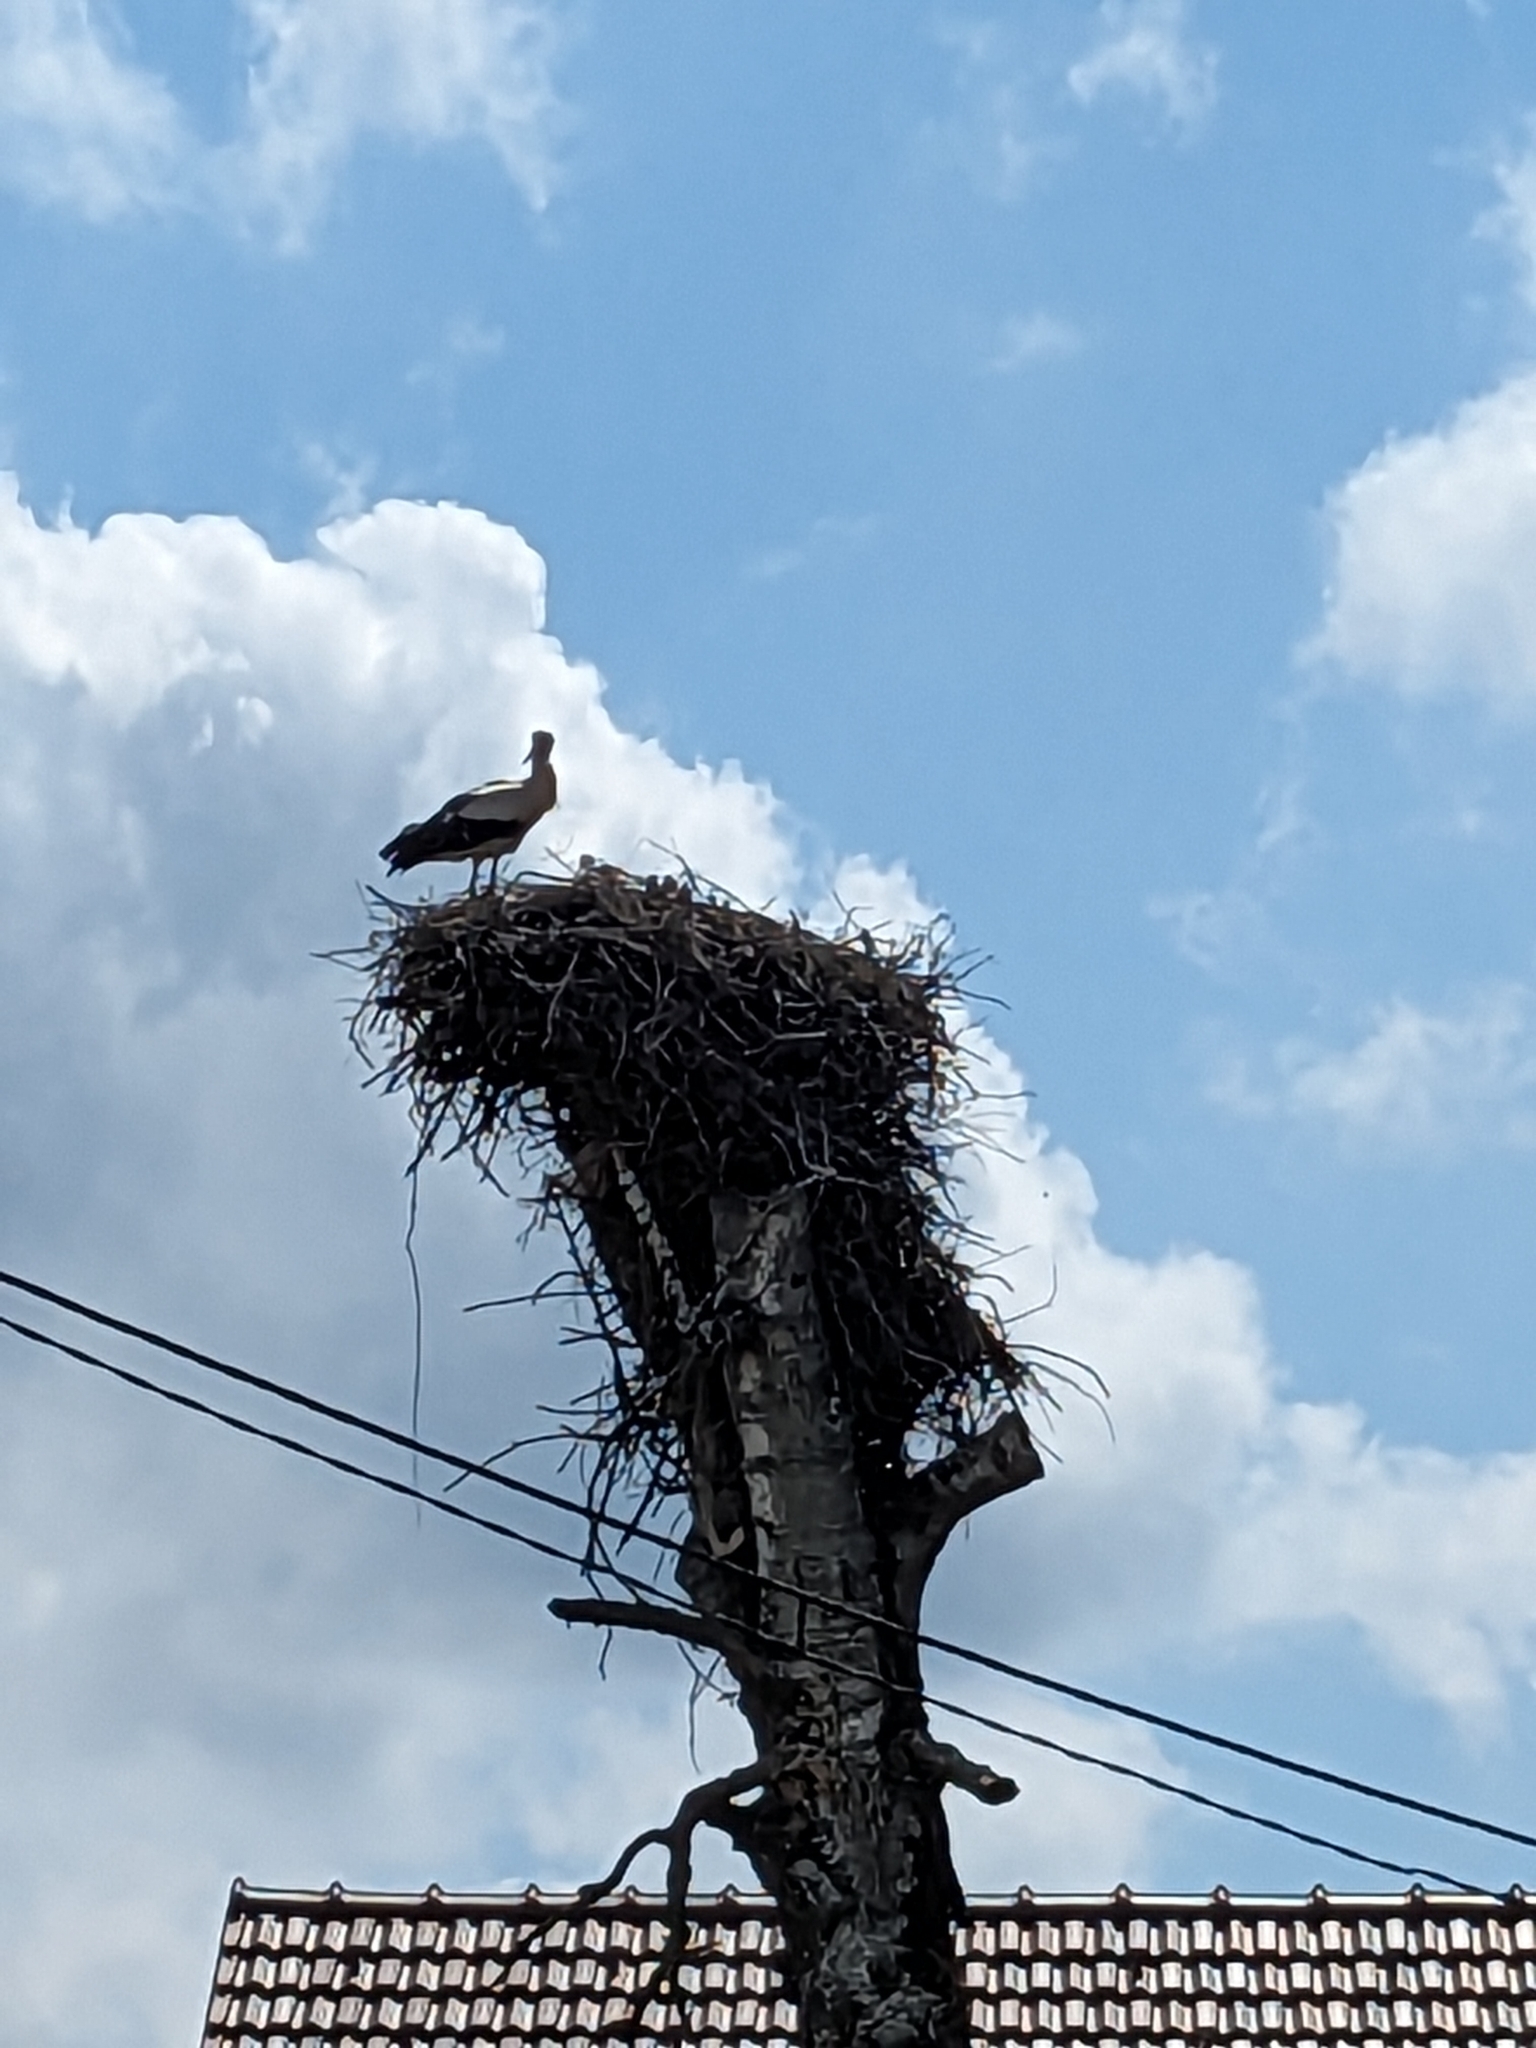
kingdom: Animalia
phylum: Chordata
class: Aves
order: Ciconiiformes
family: Ciconiidae
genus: Ciconia
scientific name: Ciconia ciconia
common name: White stork
